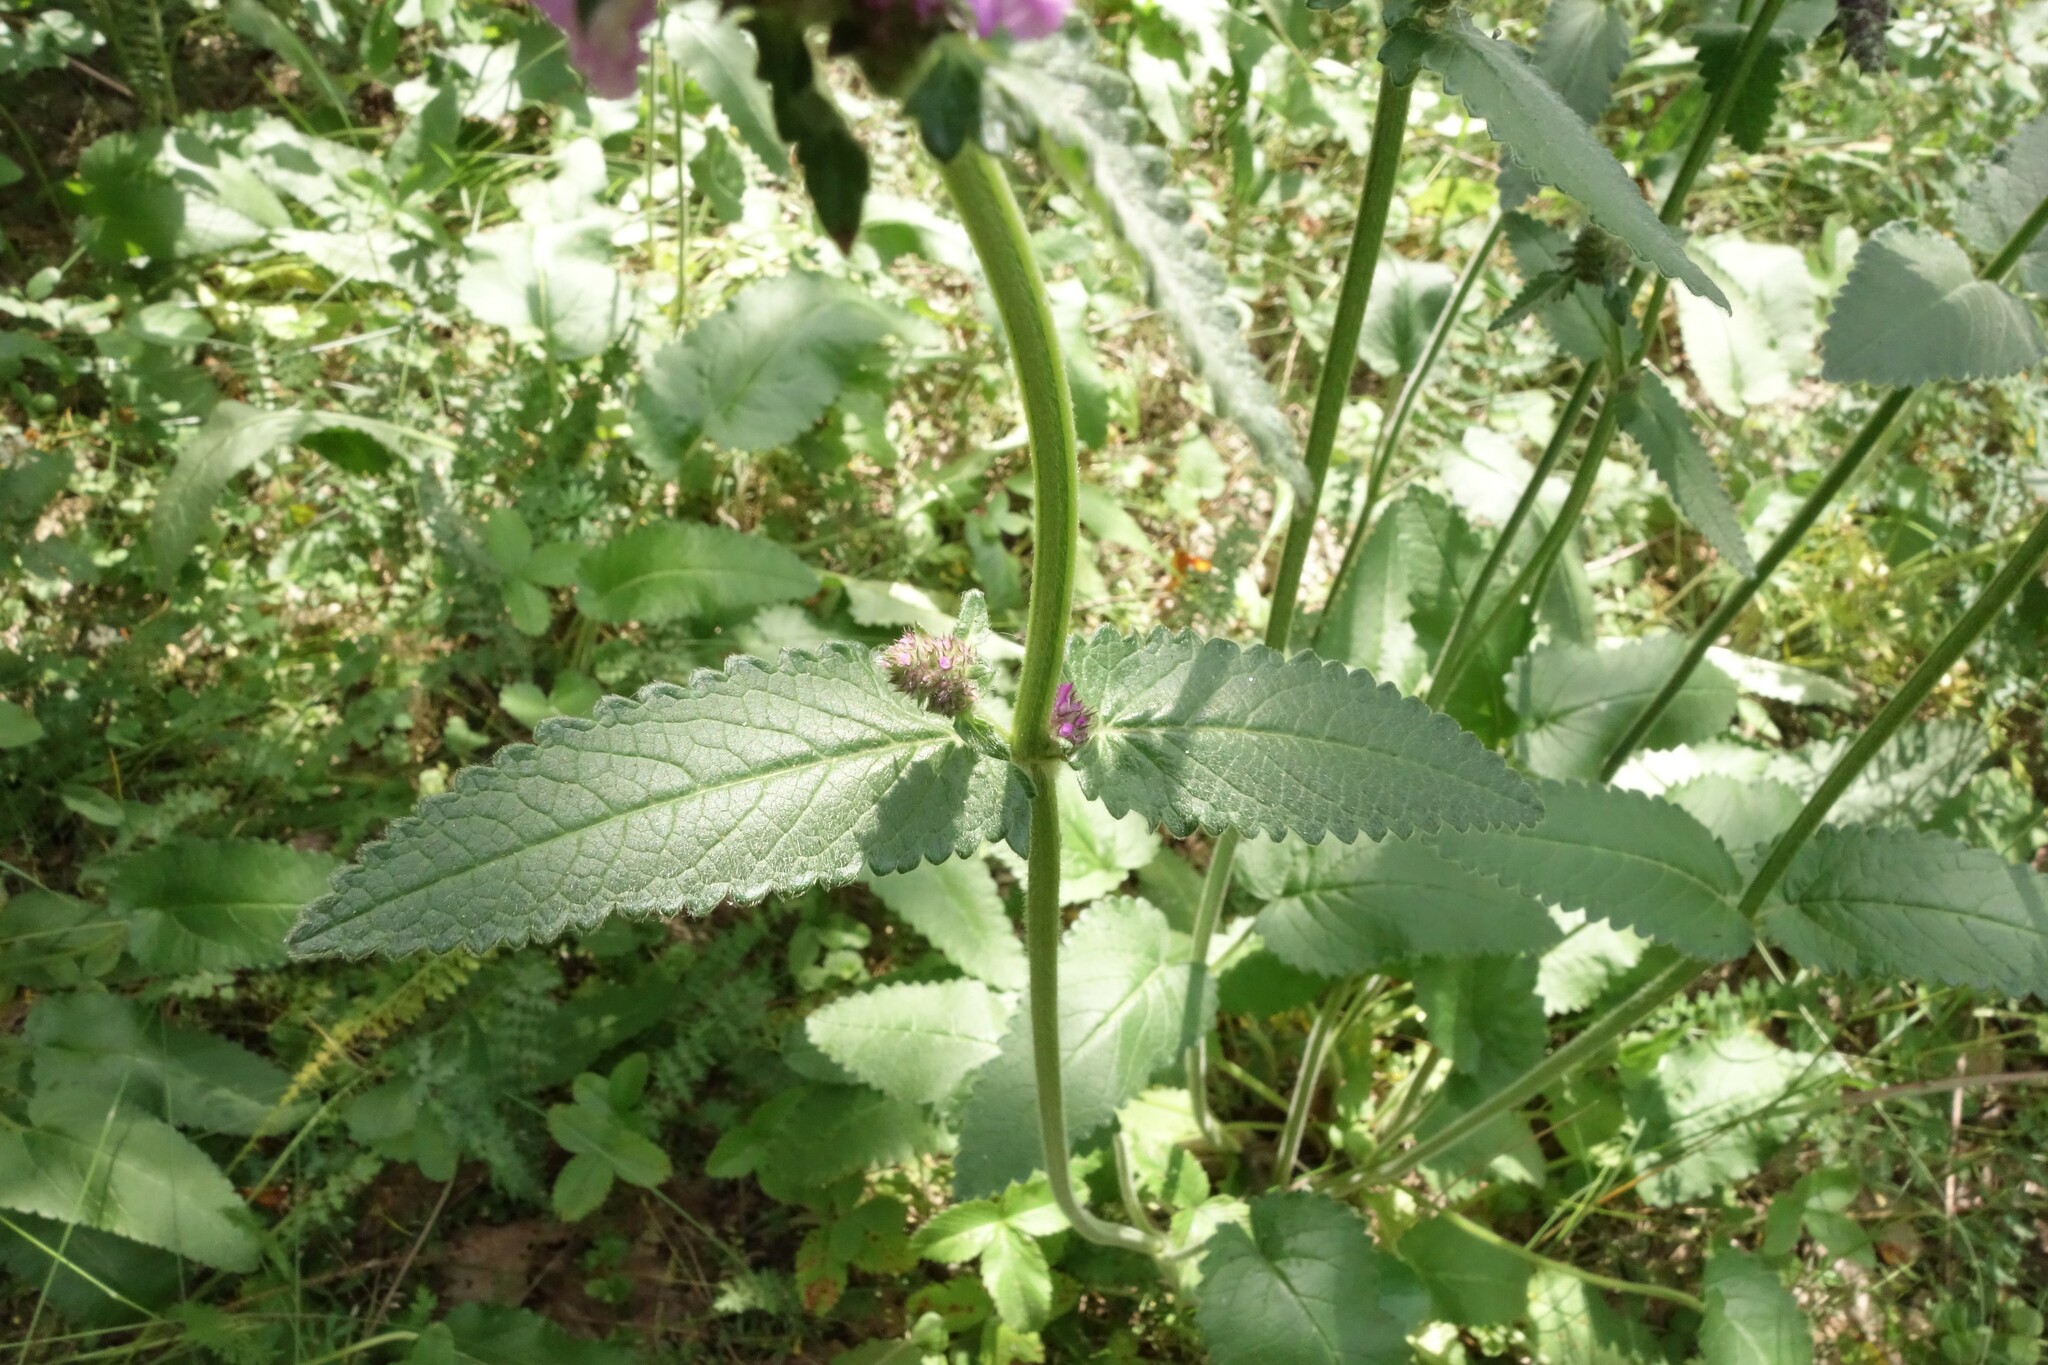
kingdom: Plantae
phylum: Tracheophyta
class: Magnoliopsida
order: Lamiales
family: Lamiaceae
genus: Betonica
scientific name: Betonica officinalis
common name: Bishop's-wort
